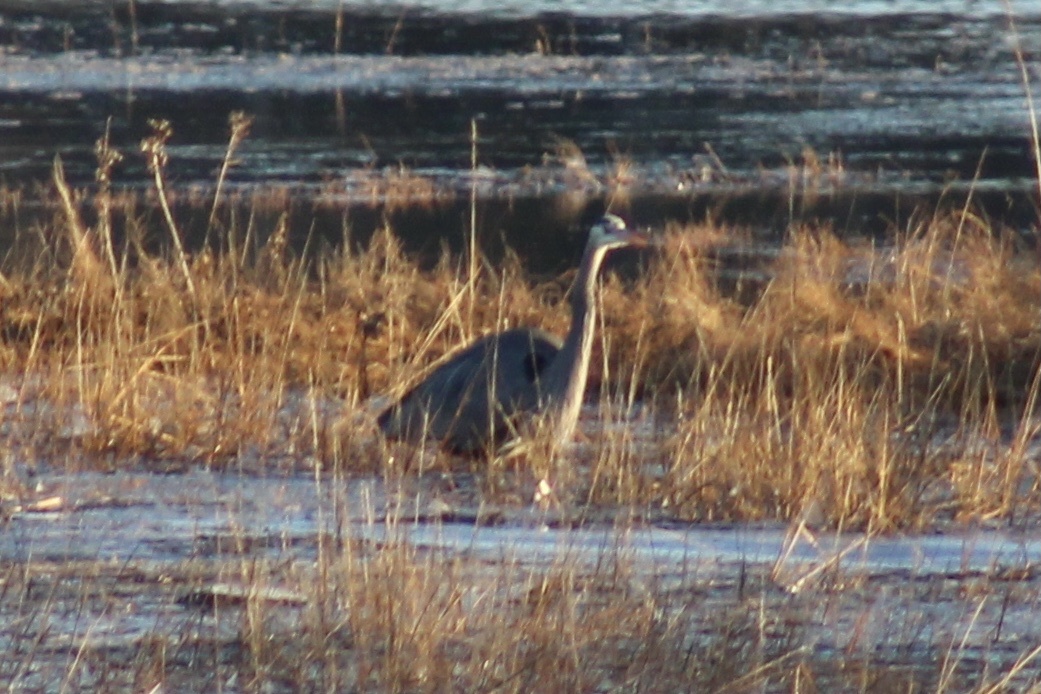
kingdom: Animalia
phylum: Chordata
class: Aves
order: Pelecaniformes
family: Ardeidae
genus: Ardea
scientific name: Ardea herodias
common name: Great blue heron
